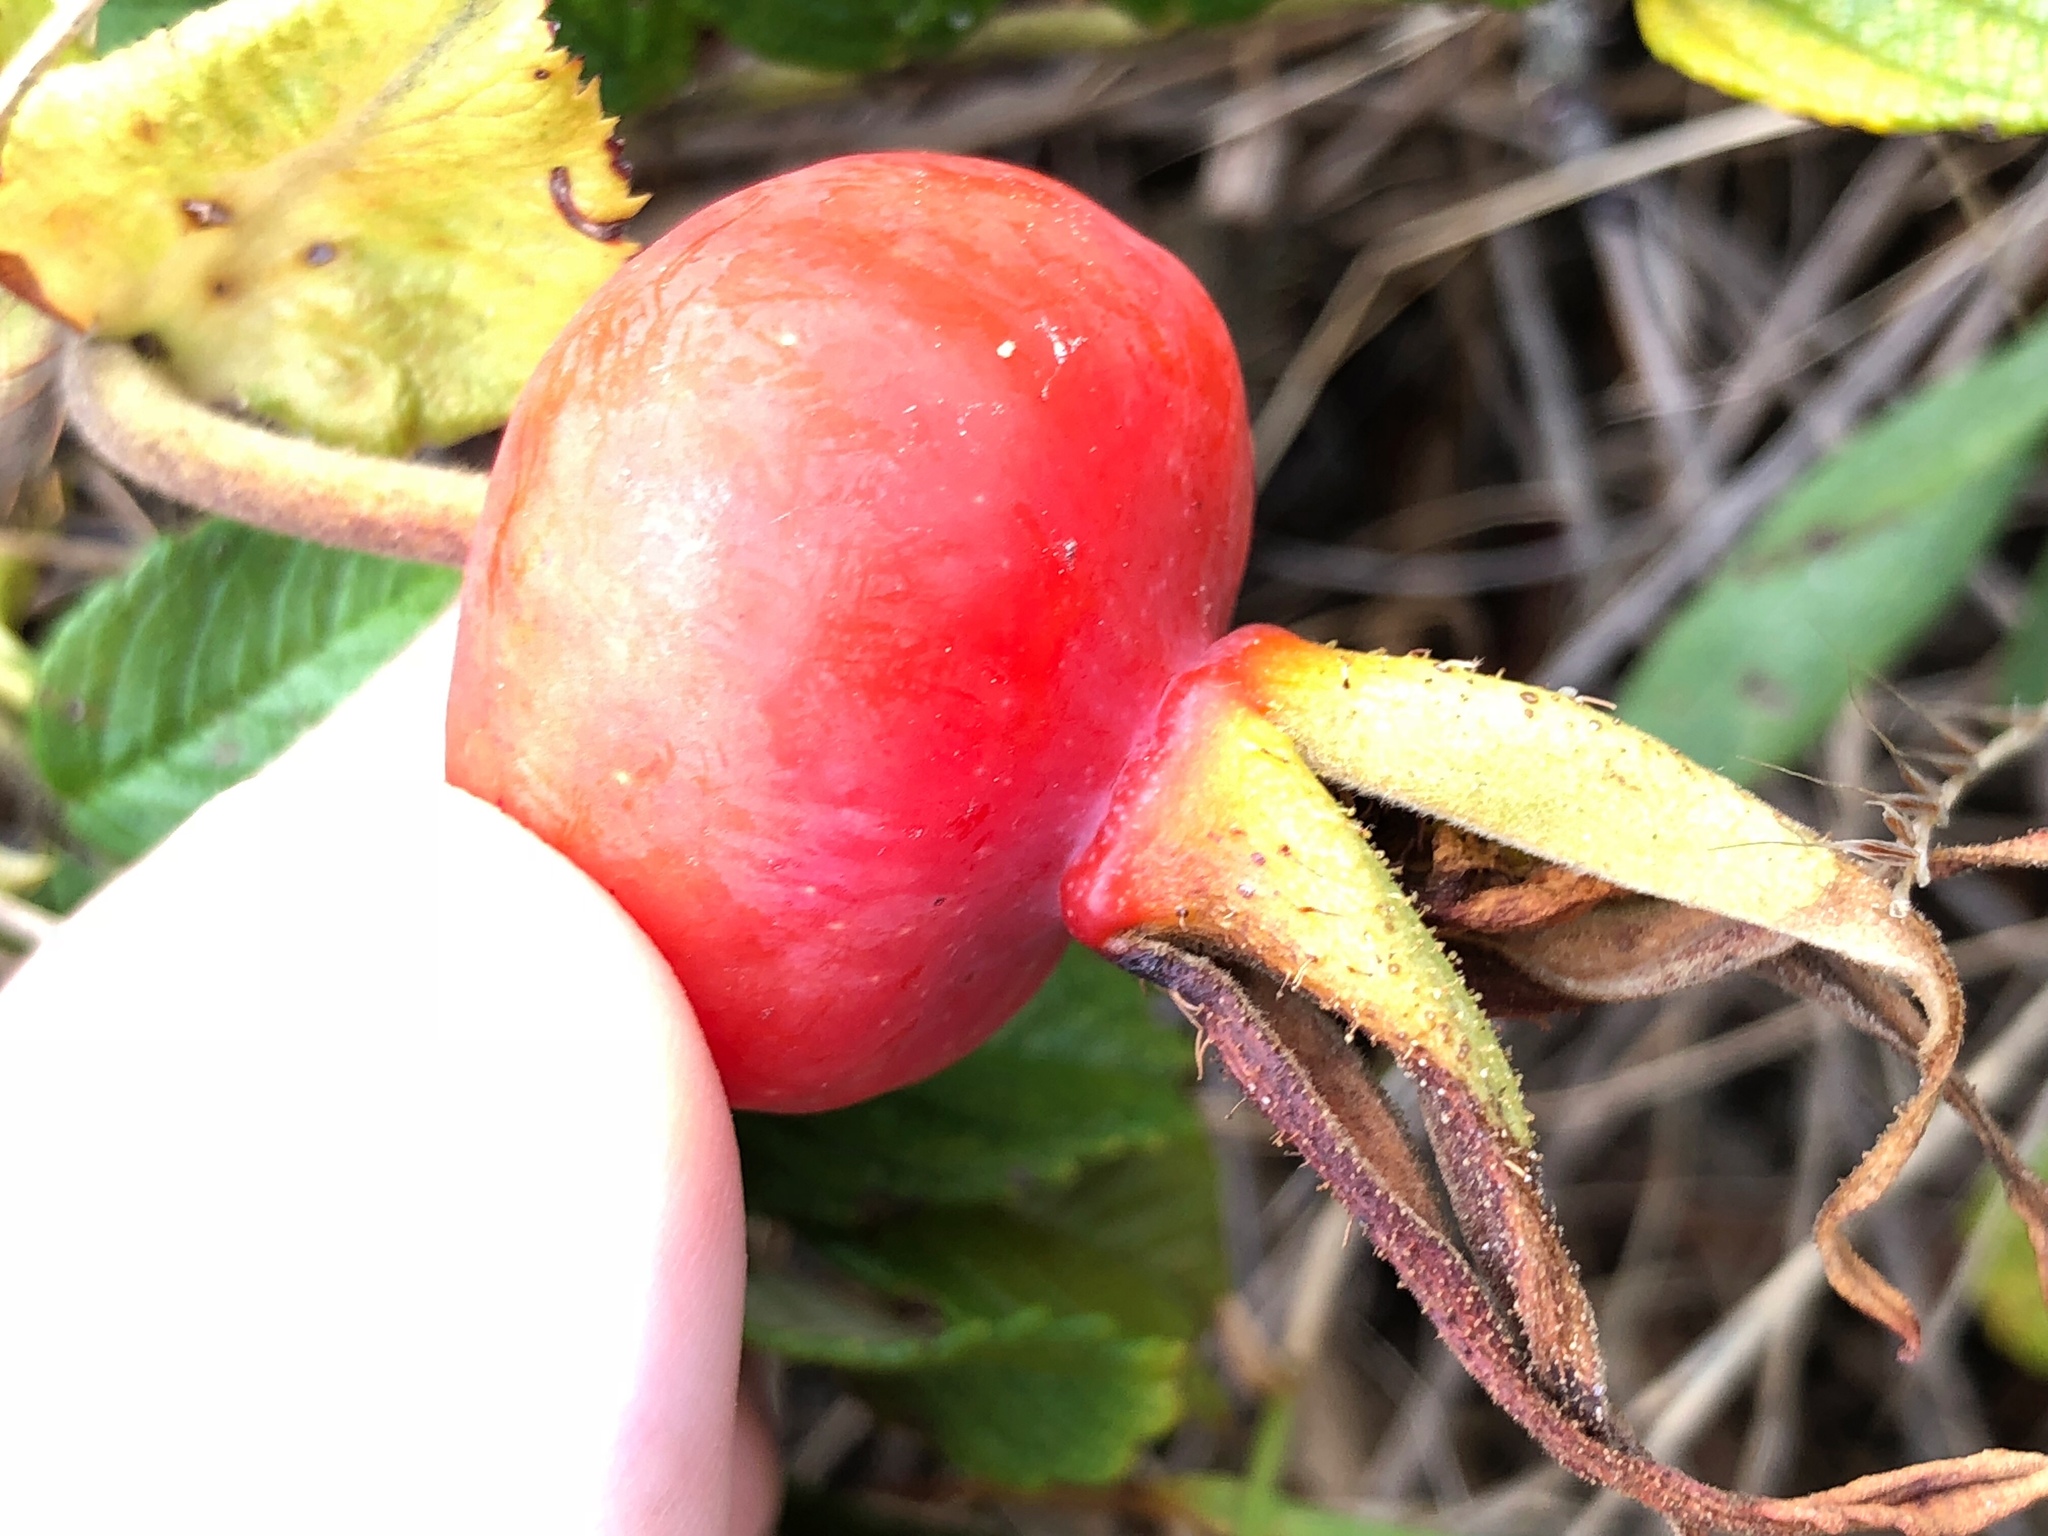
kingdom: Plantae
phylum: Tracheophyta
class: Magnoliopsida
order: Rosales
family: Rosaceae
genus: Rosa
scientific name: Rosa rugosa
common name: Japanese rose
